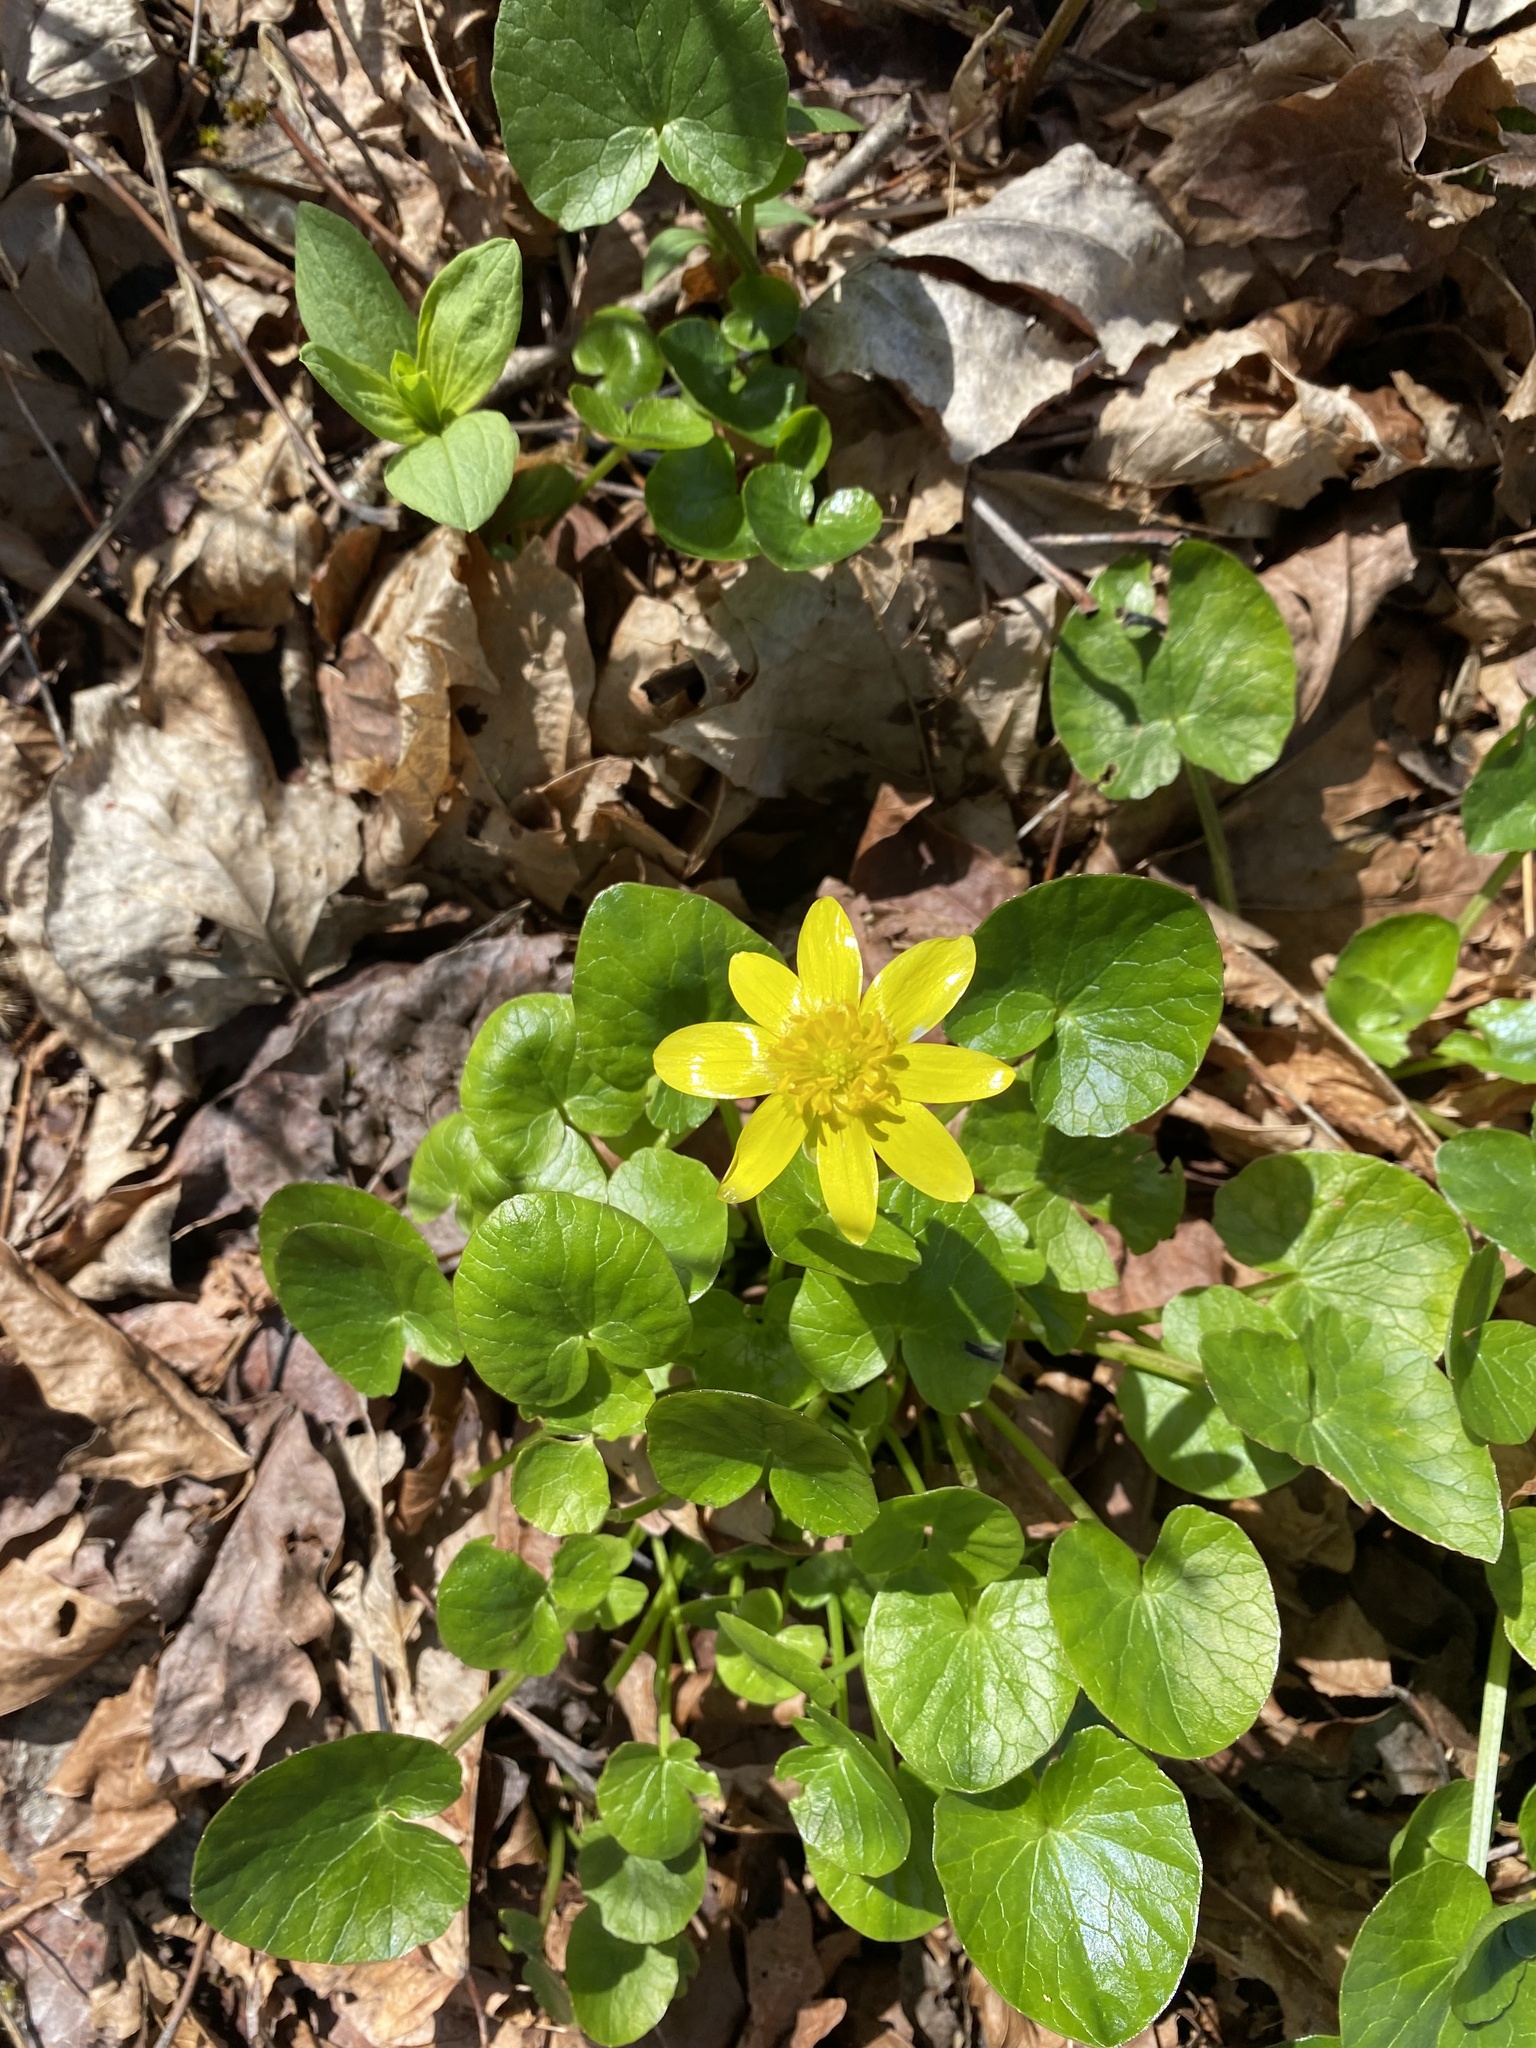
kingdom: Plantae
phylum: Tracheophyta
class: Magnoliopsida
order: Ranunculales
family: Ranunculaceae
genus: Ficaria
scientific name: Ficaria verna
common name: Lesser celandine
